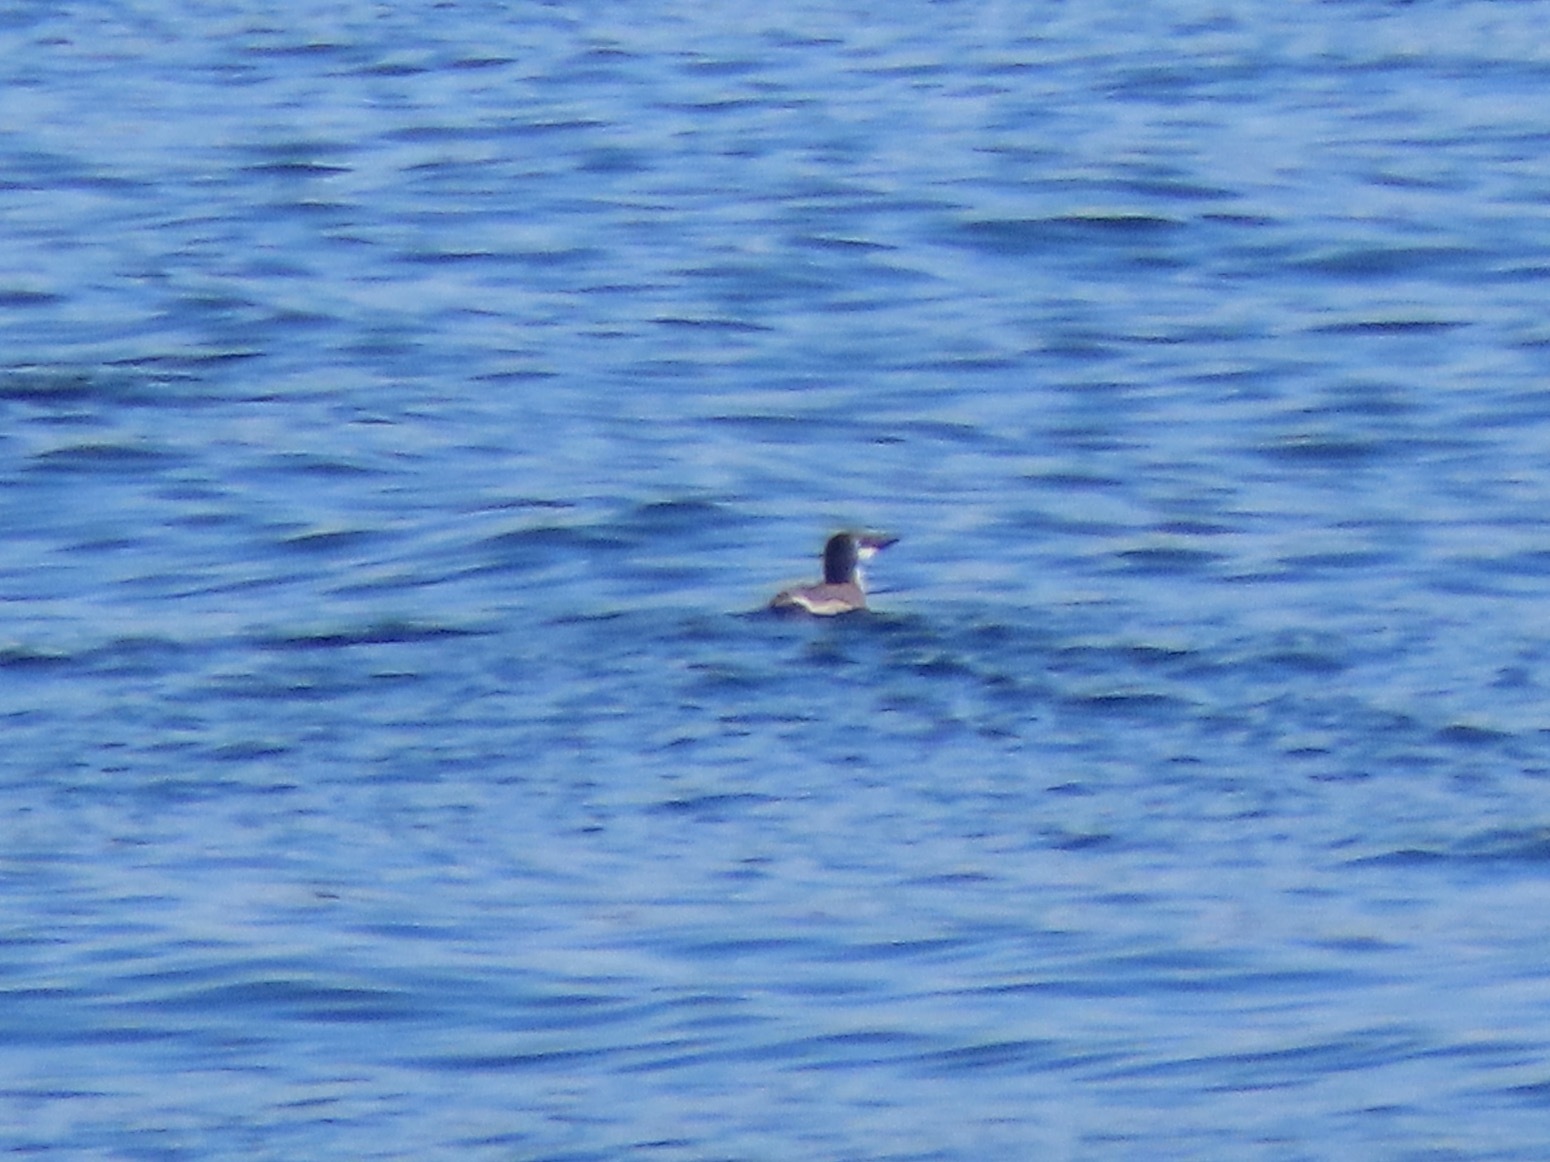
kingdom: Animalia
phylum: Chordata
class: Aves
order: Charadriiformes
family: Alcidae
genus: Uria
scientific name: Uria aalge
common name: Common murre
